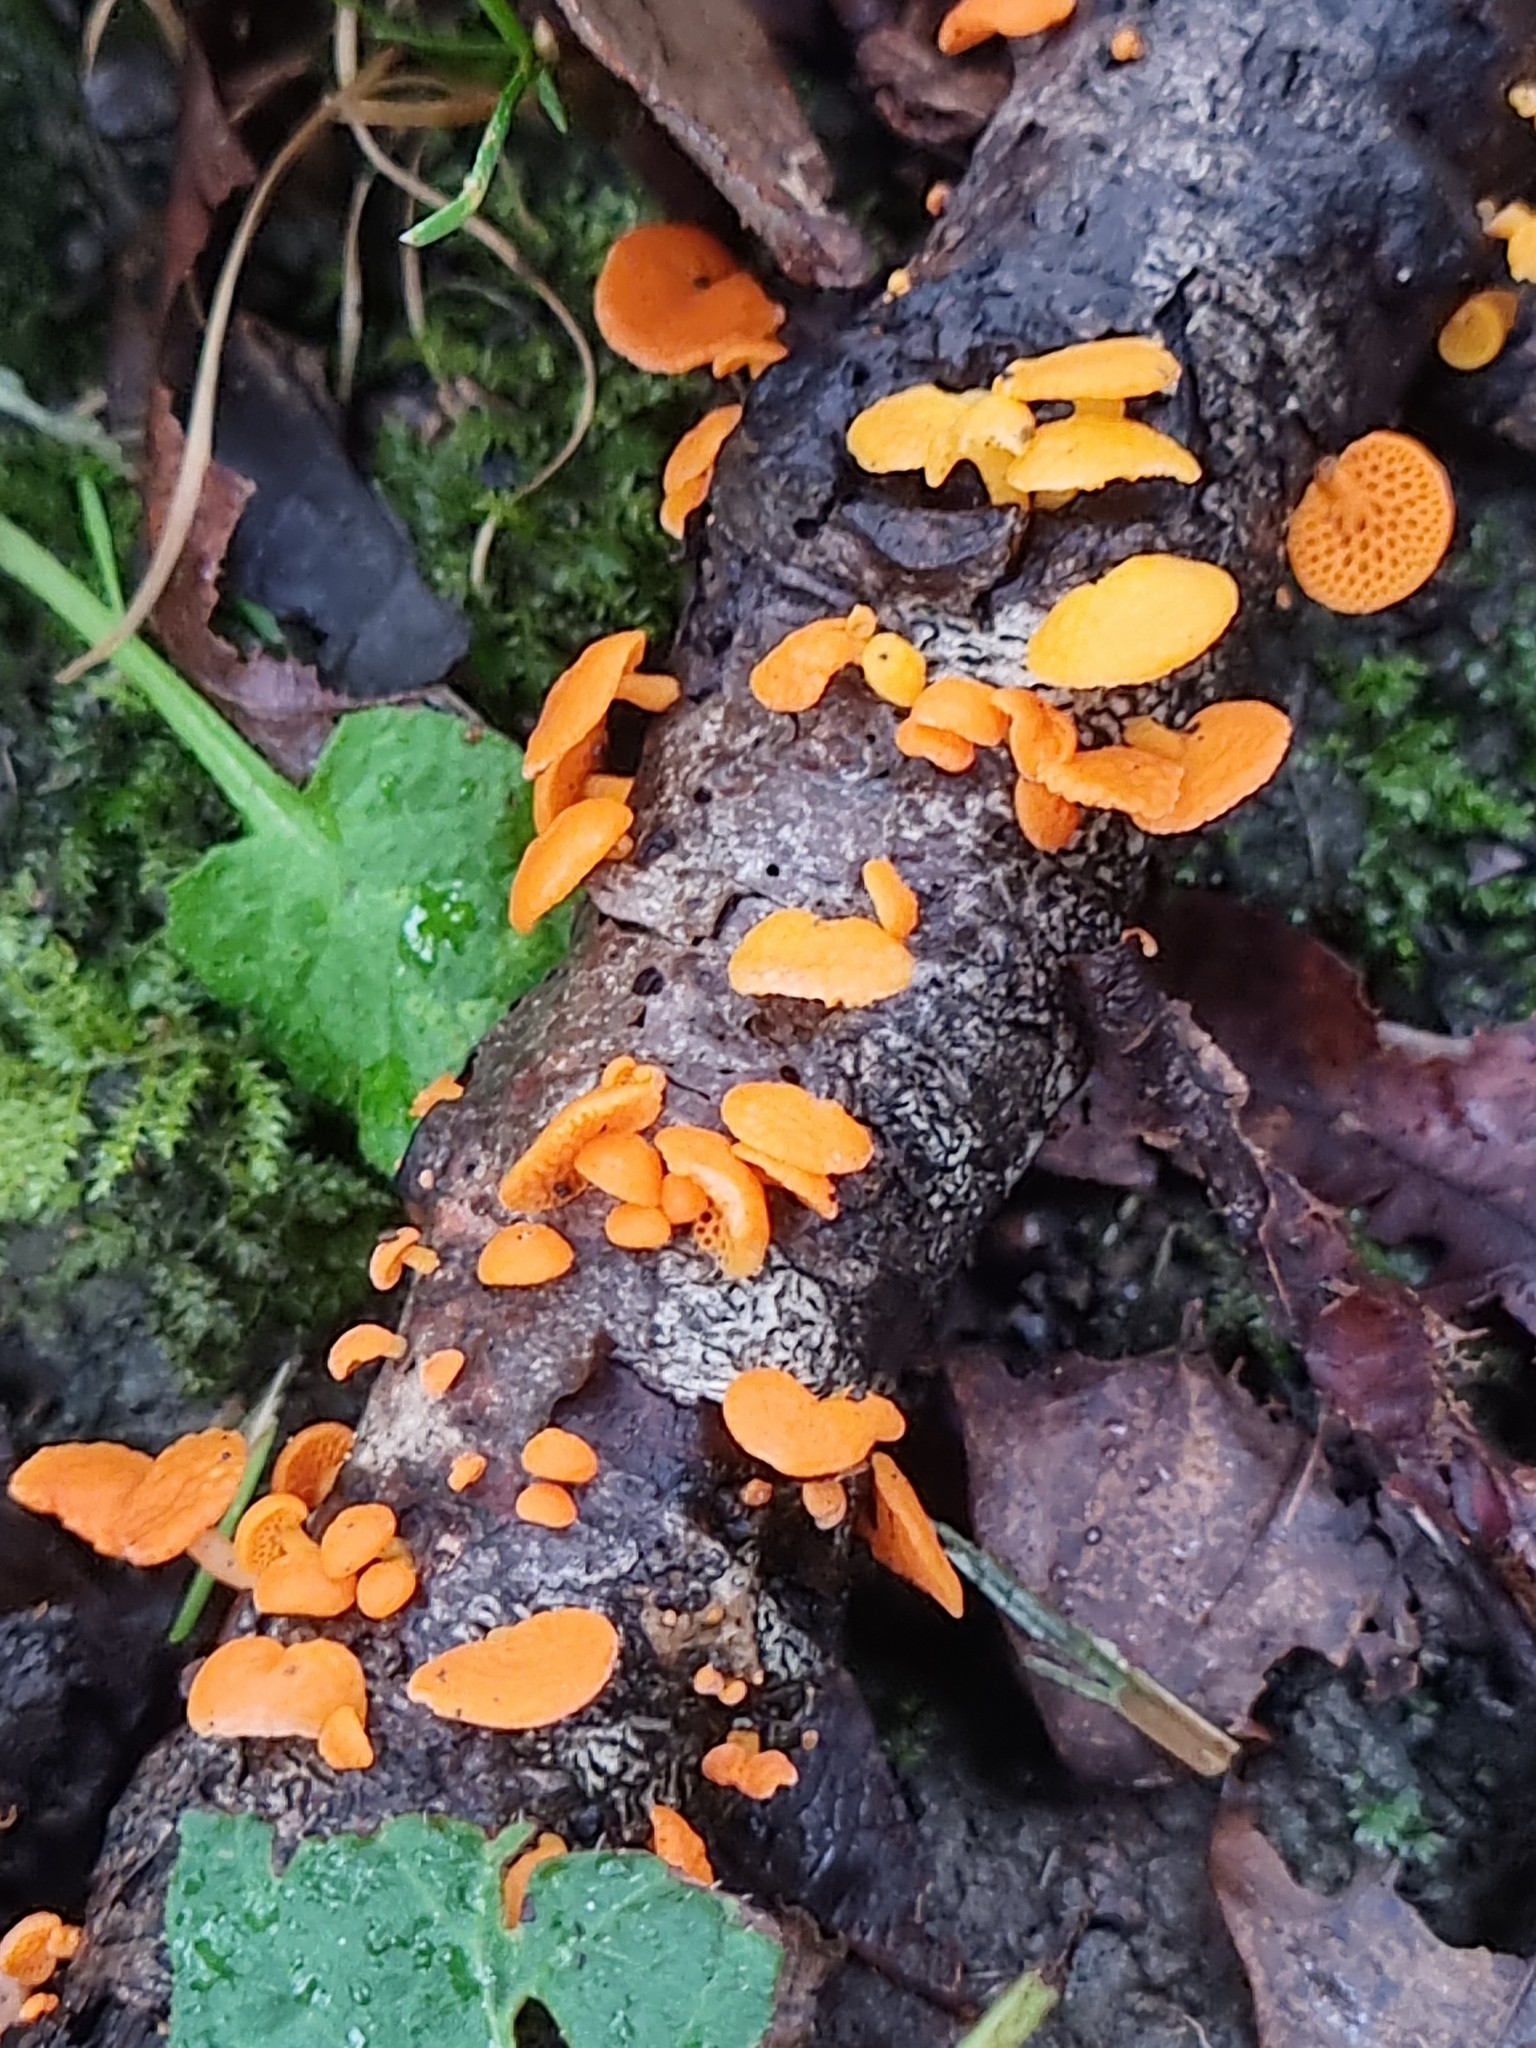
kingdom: Fungi
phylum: Basidiomycota
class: Agaricomycetes
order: Agaricales
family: Mycenaceae
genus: Favolaschia
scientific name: Favolaschia claudopus
